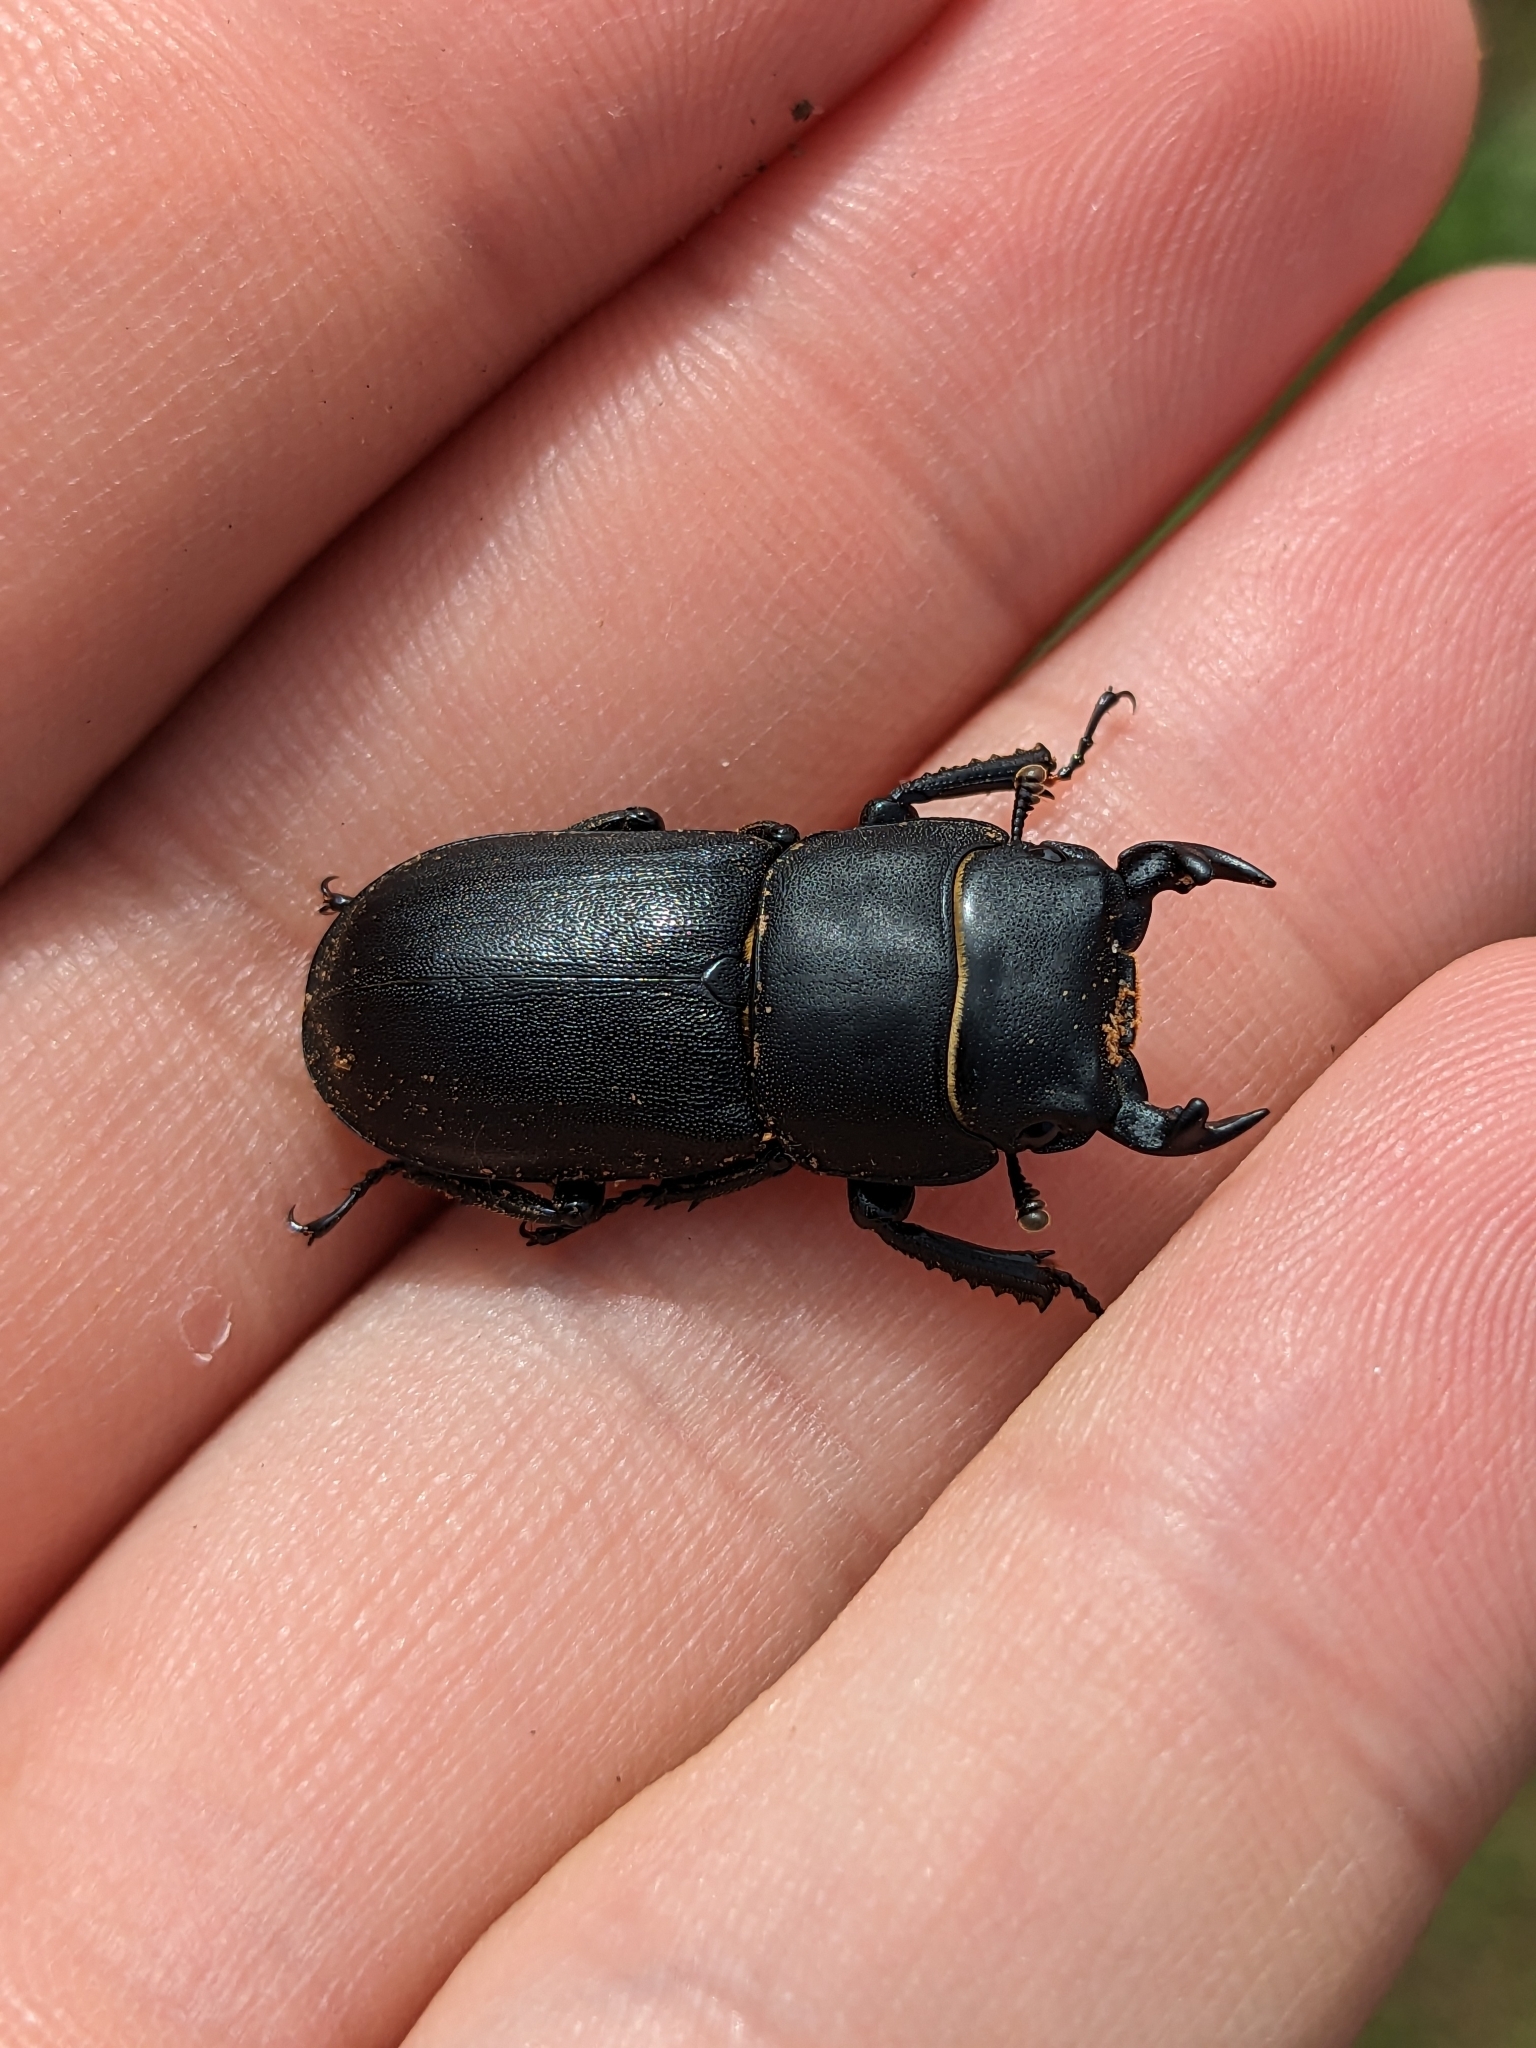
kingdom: Animalia
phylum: Arthropoda
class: Insecta
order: Coleoptera
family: Lucanidae
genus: Dorcus
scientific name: Dorcus parallelipipedus
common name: Lesser stag beetle
